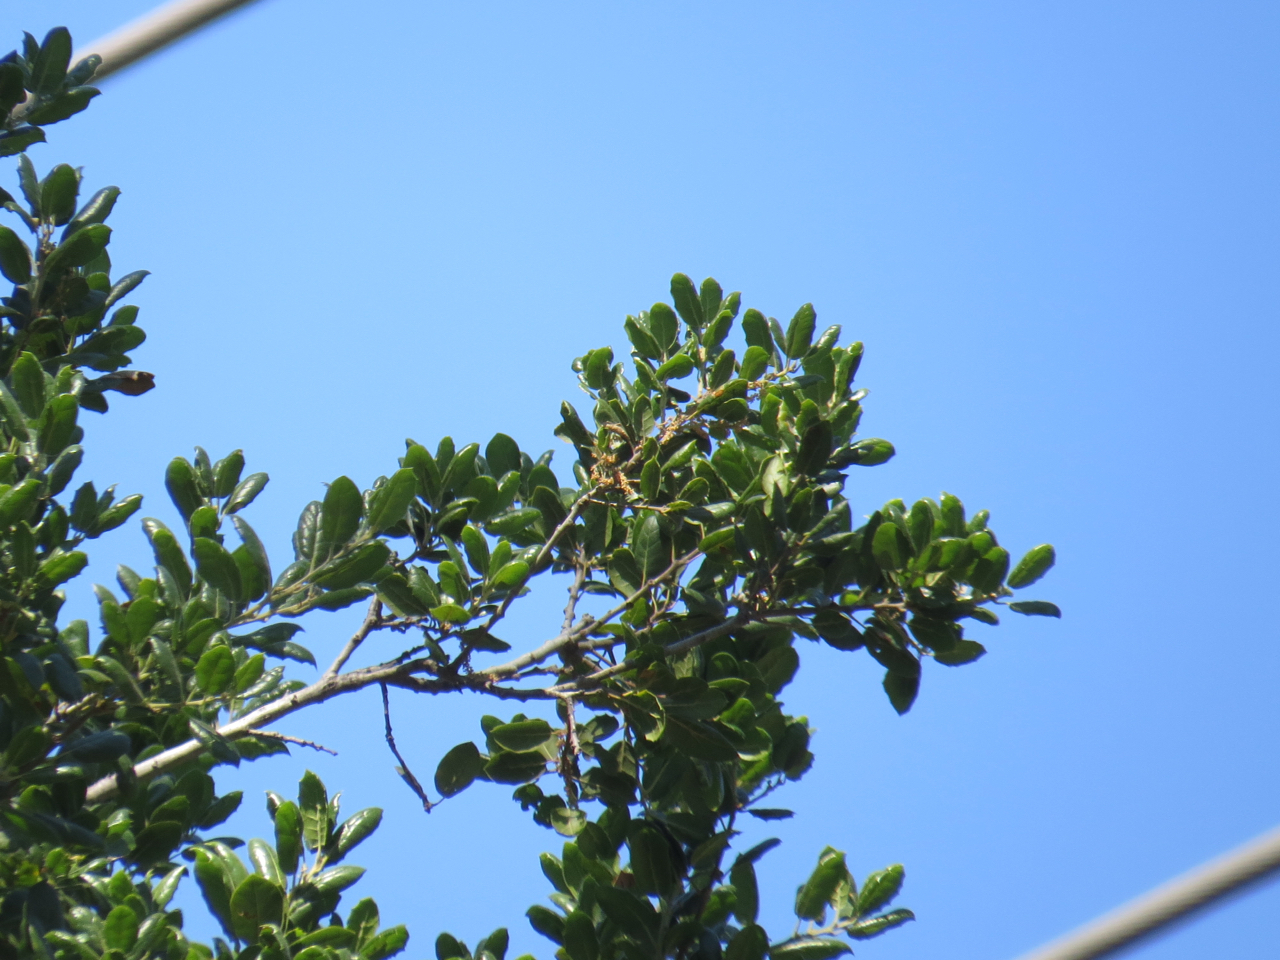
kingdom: Plantae
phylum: Tracheophyta
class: Magnoliopsida
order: Fagales
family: Fagaceae
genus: Quercus
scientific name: Quercus agrifolia
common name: California live oak
